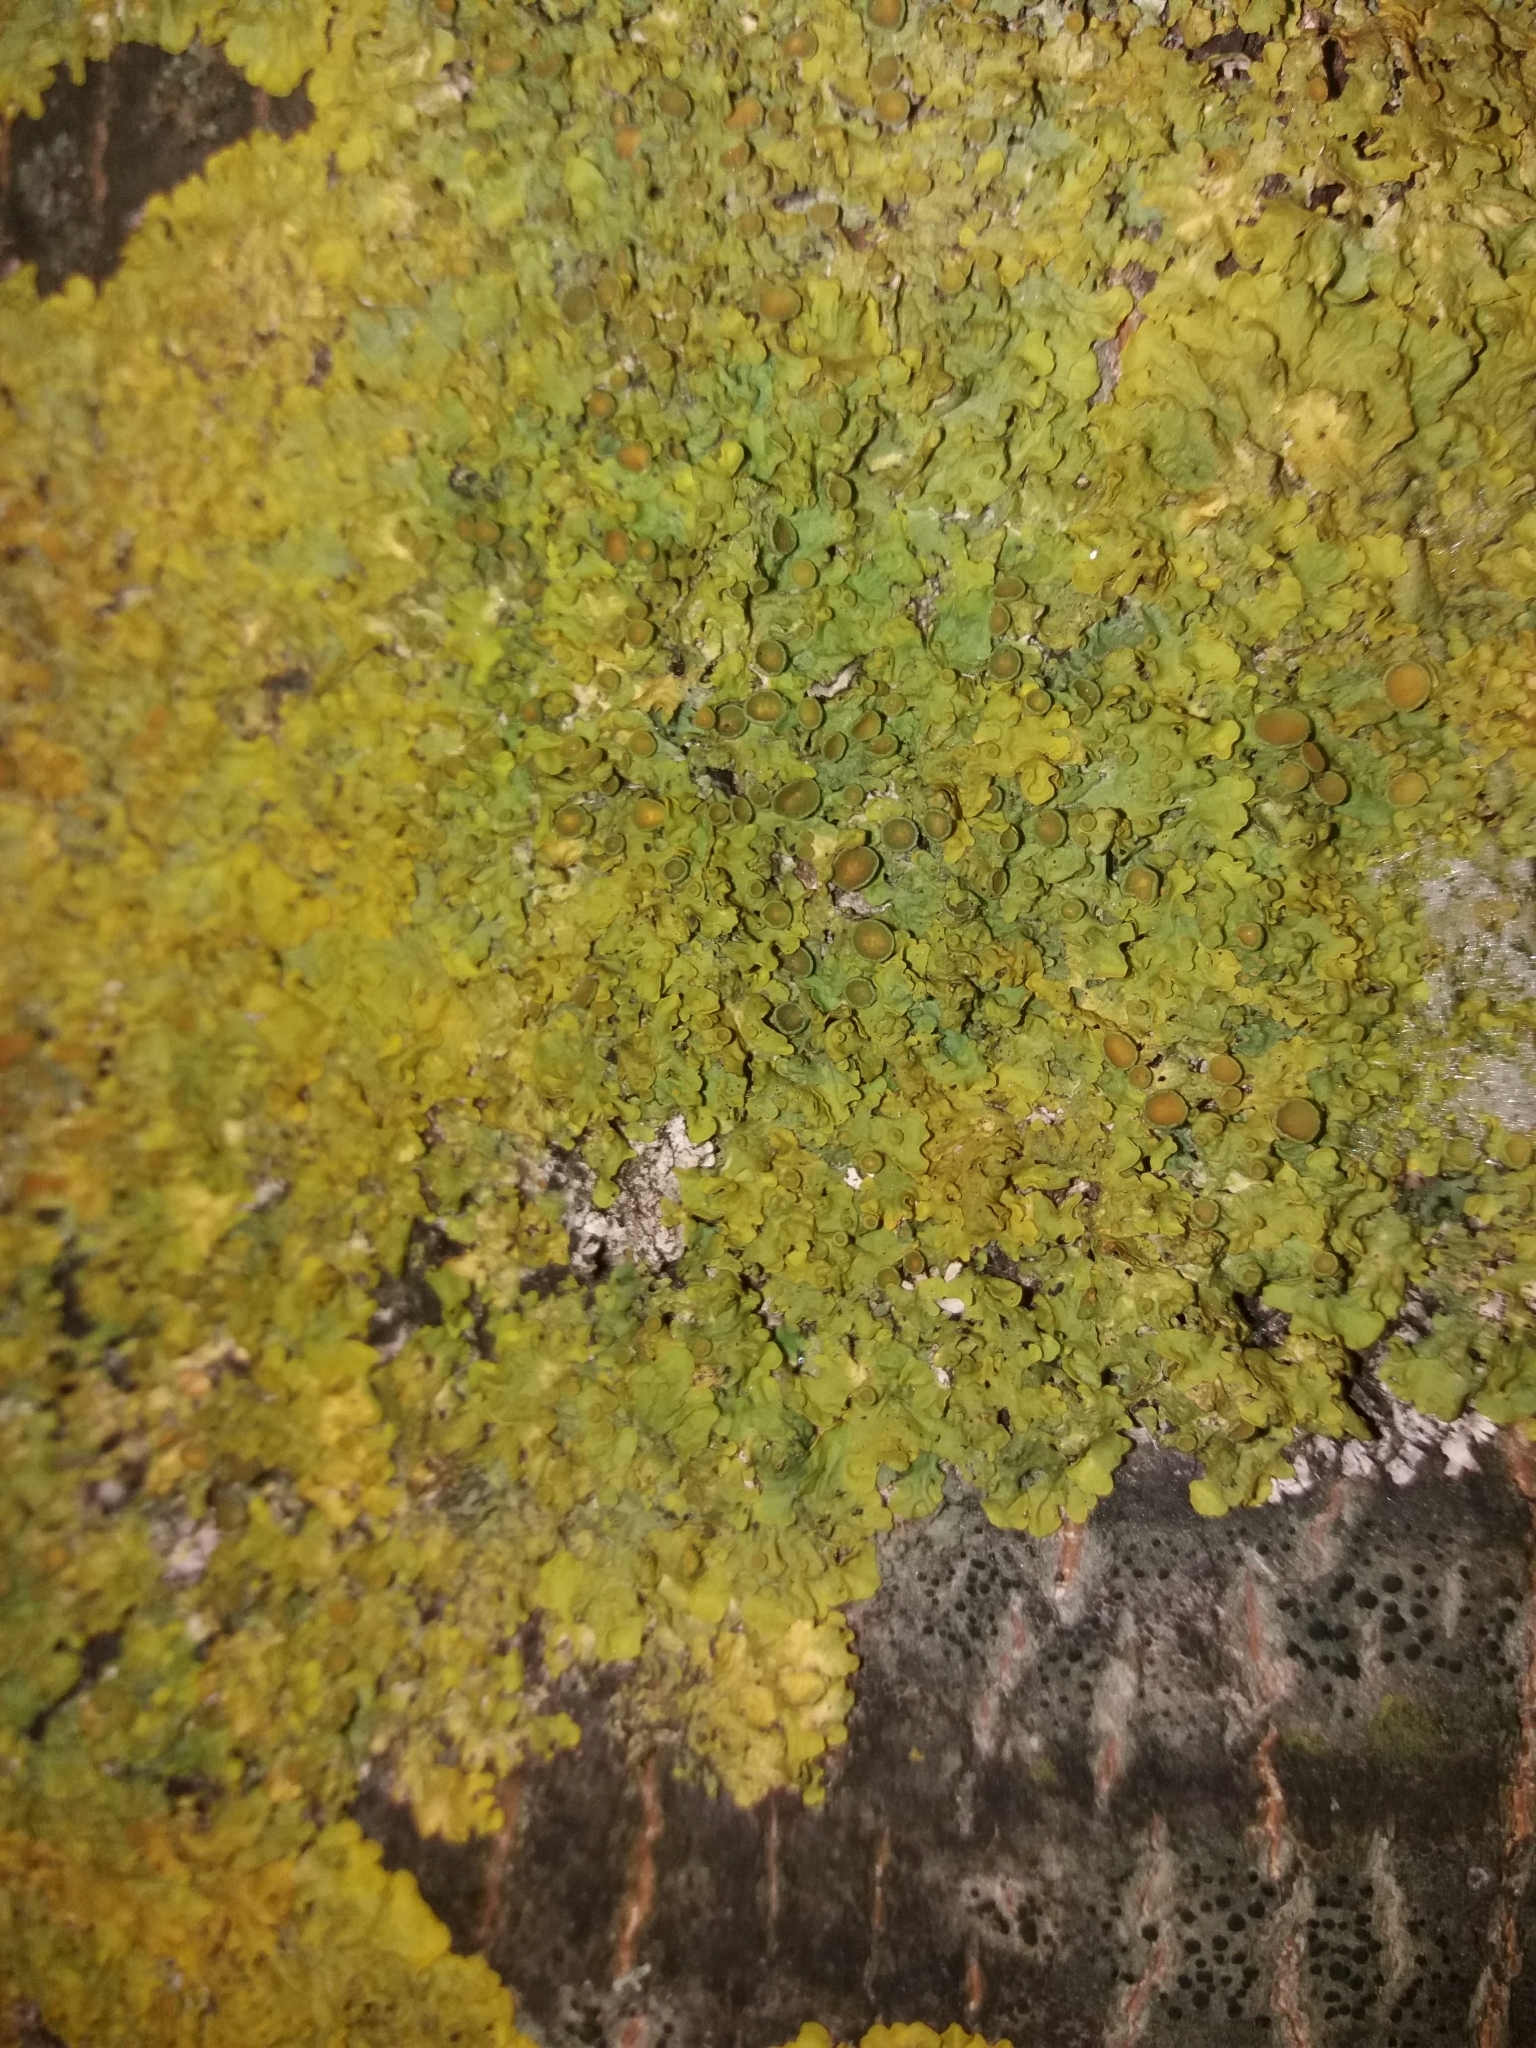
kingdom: Fungi
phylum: Ascomycota
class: Lecanoromycetes
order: Teloschistales
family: Teloschistaceae
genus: Xanthoria
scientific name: Xanthoria parietina
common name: Common orange lichen
